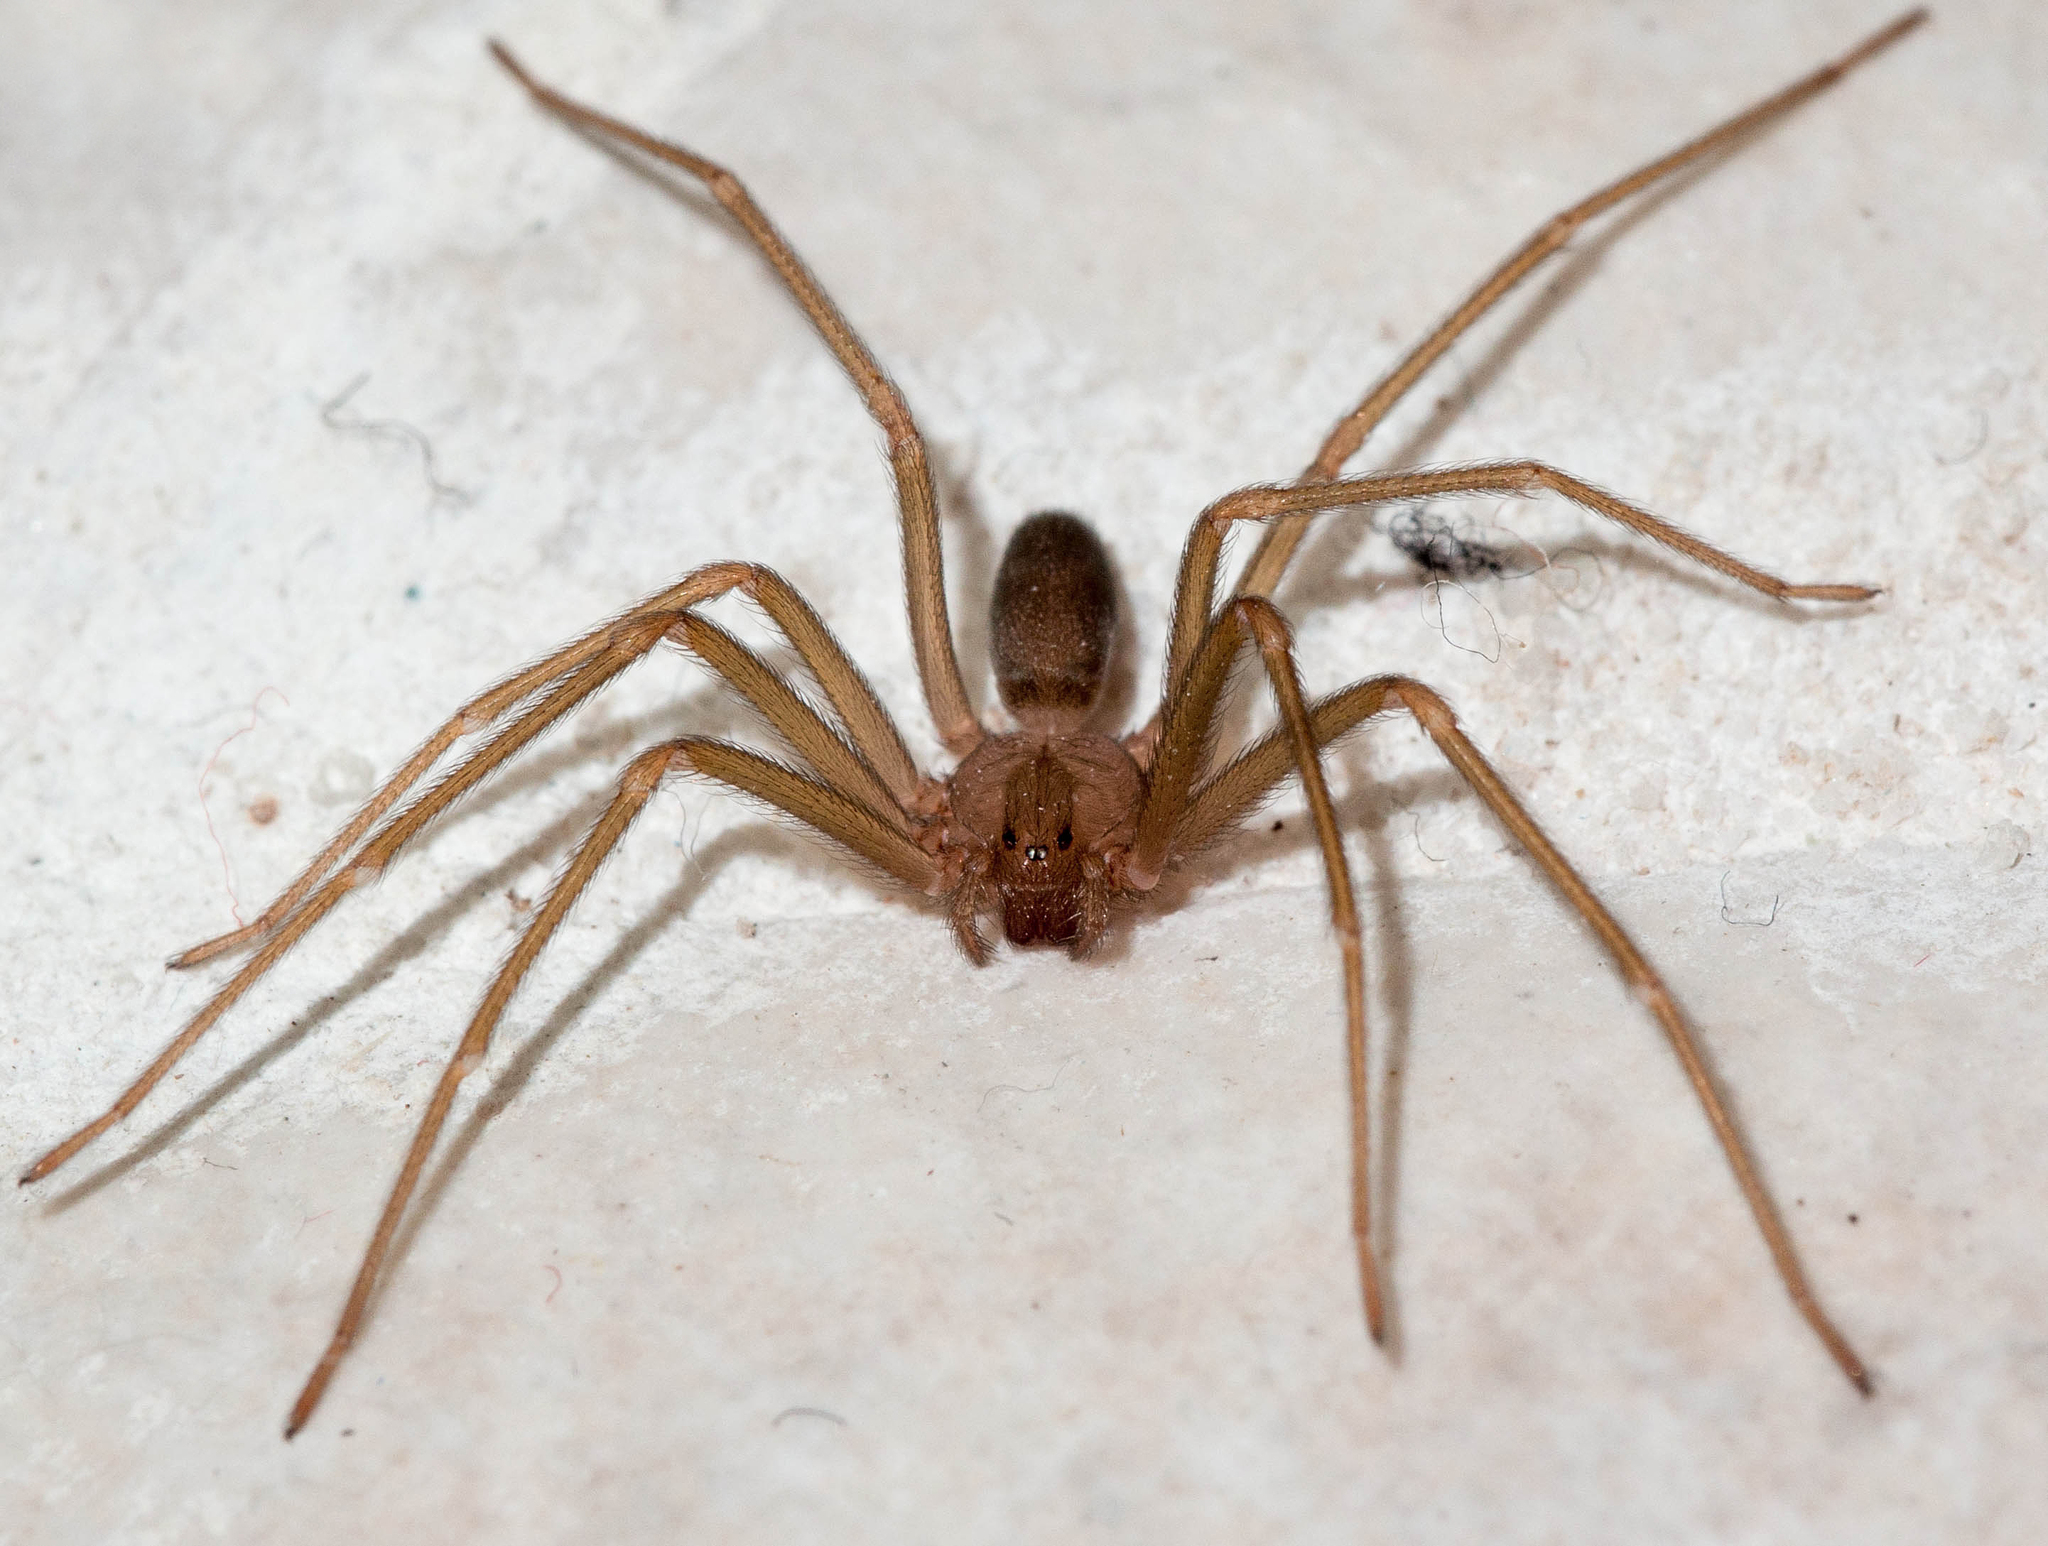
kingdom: Animalia
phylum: Arthropoda
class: Arachnida
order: Araneae
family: Sicariidae
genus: Loxosceles
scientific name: Loxosceles rufescens
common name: Mediterranean recluse spider
